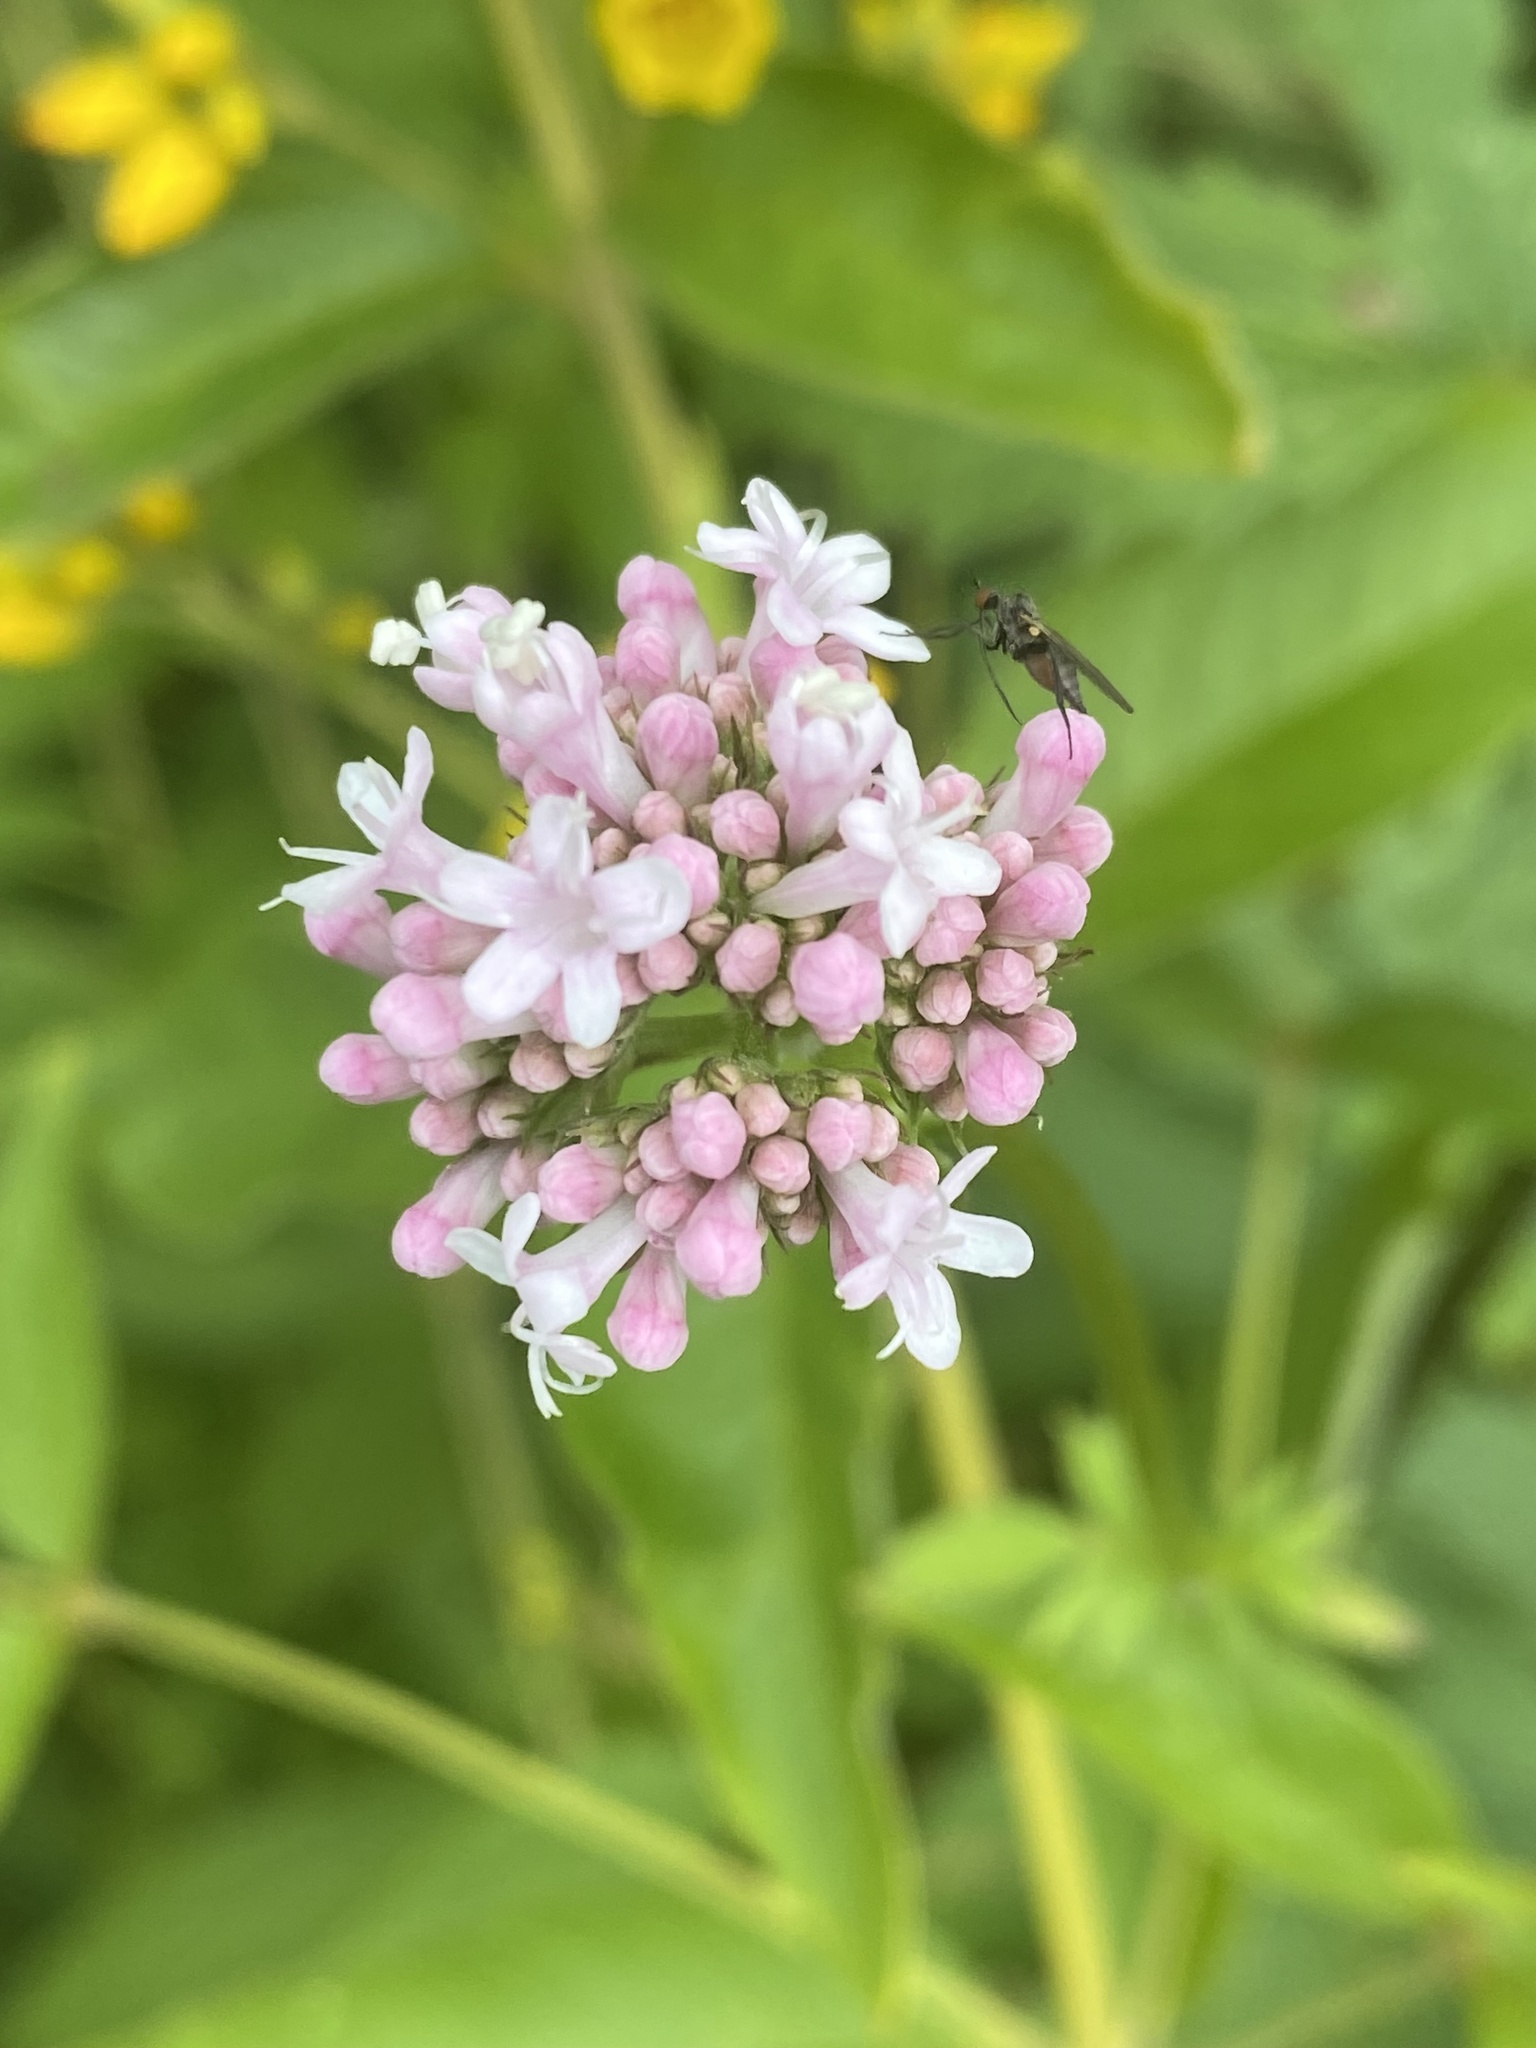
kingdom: Plantae
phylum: Tracheophyta
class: Magnoliopsida
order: Dipsacales
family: Caprifoliaceae
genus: Valeriana
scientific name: Valeriana sambucifolia
